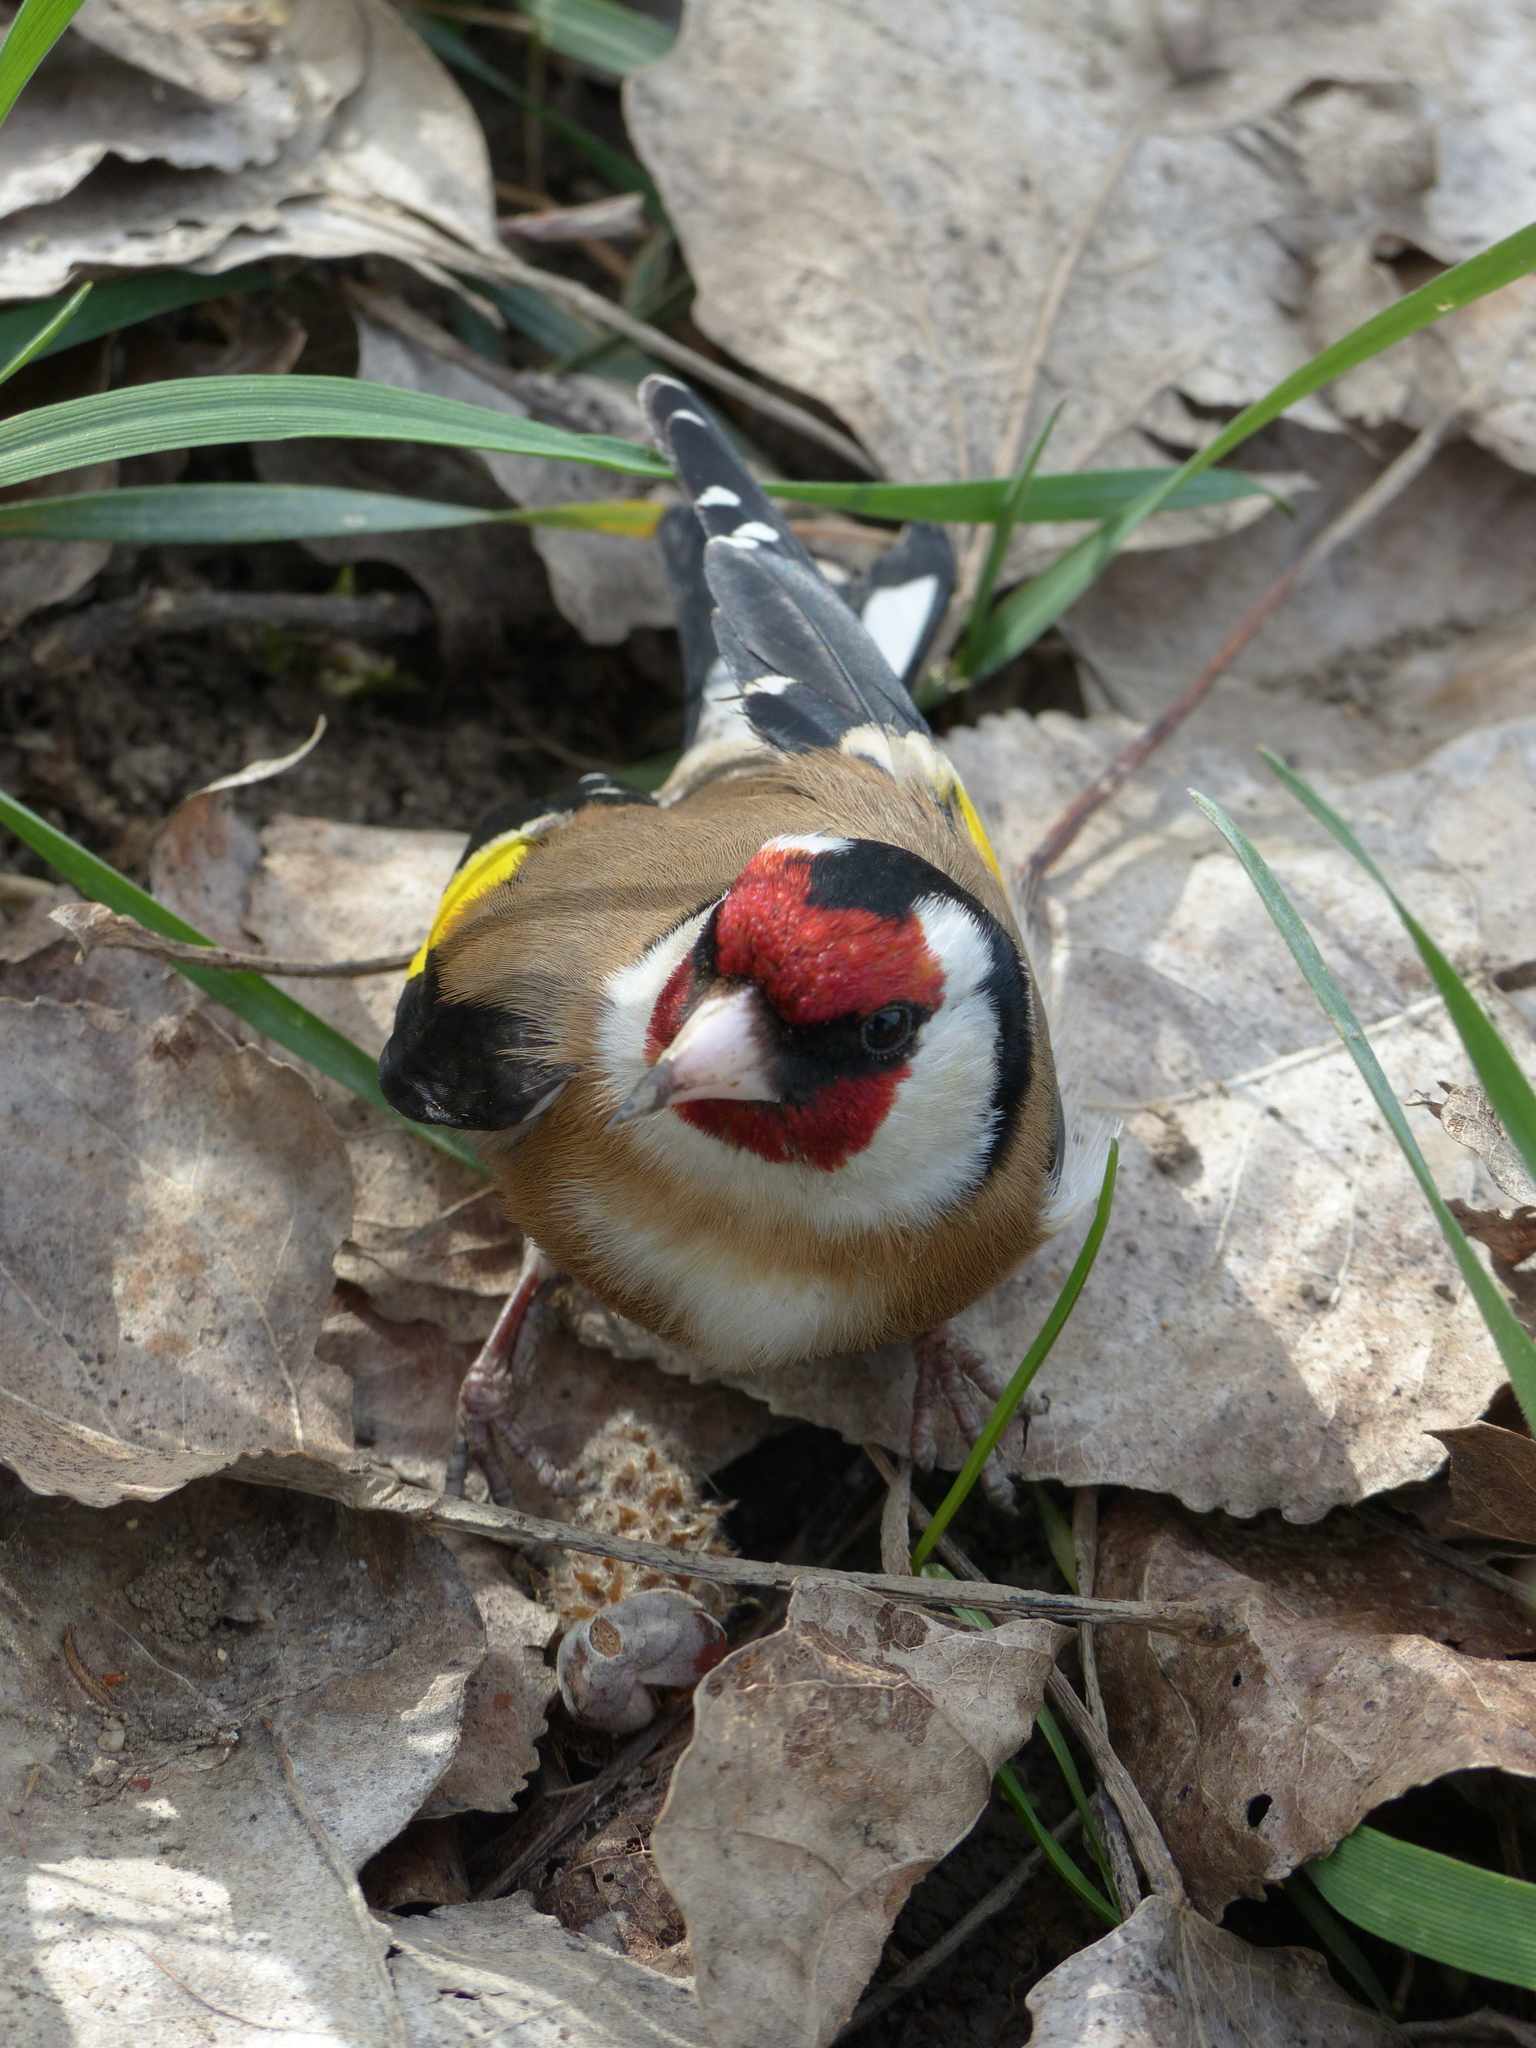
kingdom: Animalia
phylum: Chordata
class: Aves
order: Passeriformes
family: Fringillidae
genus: Carduelis
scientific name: Carduelis carduelis
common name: European goldfinch
